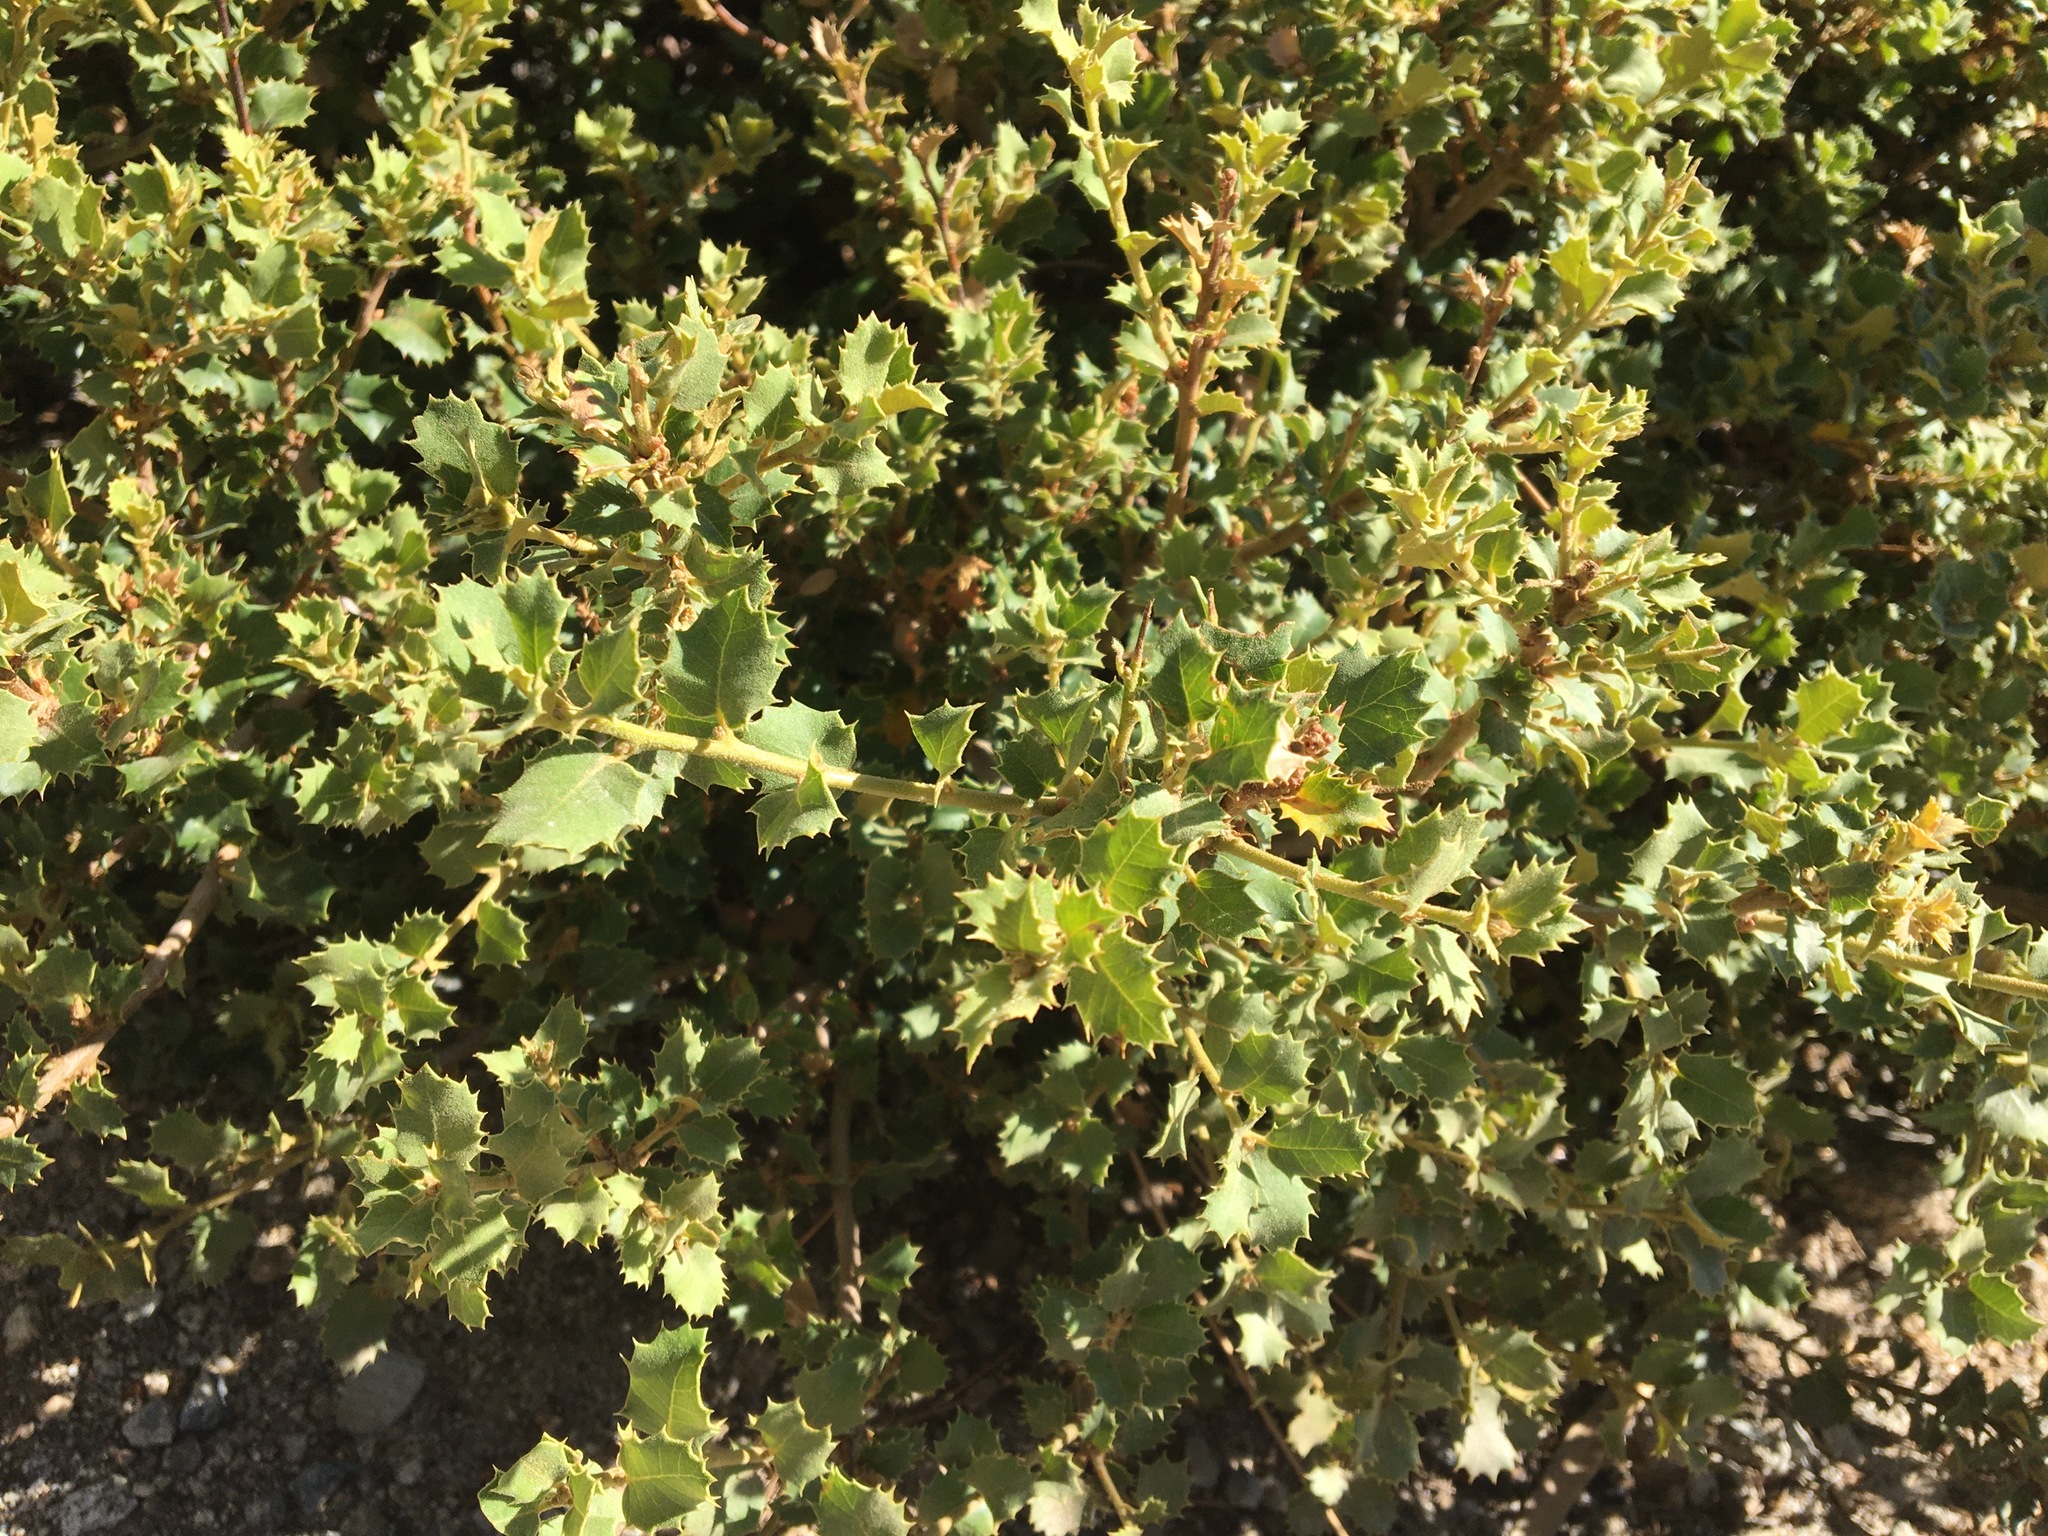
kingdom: Plantae
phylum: Tracheophyta
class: Magnoliopsida
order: Fagales
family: Fagaceae
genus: Quercus
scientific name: Quercus chrysolepis
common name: Canyon live oak
